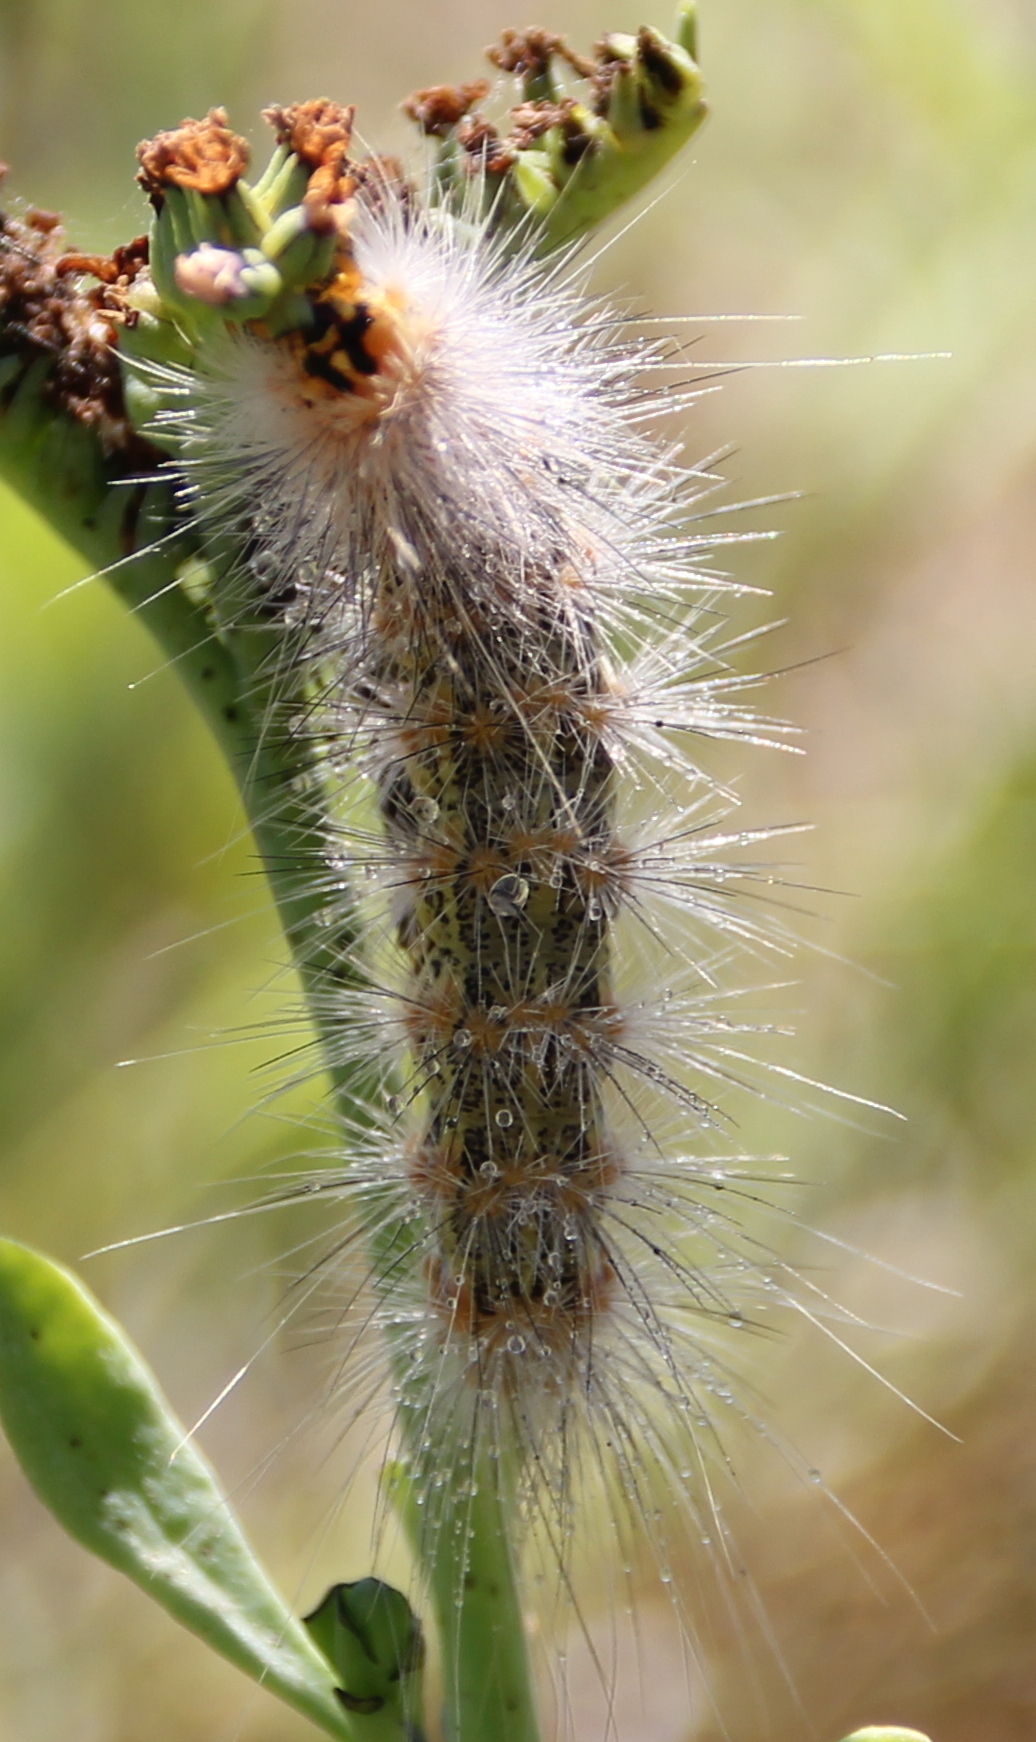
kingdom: Animalia
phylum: Arthropoda
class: Insecta
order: Lepidoptera
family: Erebidae
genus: Estigmene
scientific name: Estigmene acrea
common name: Salt marsh moth
